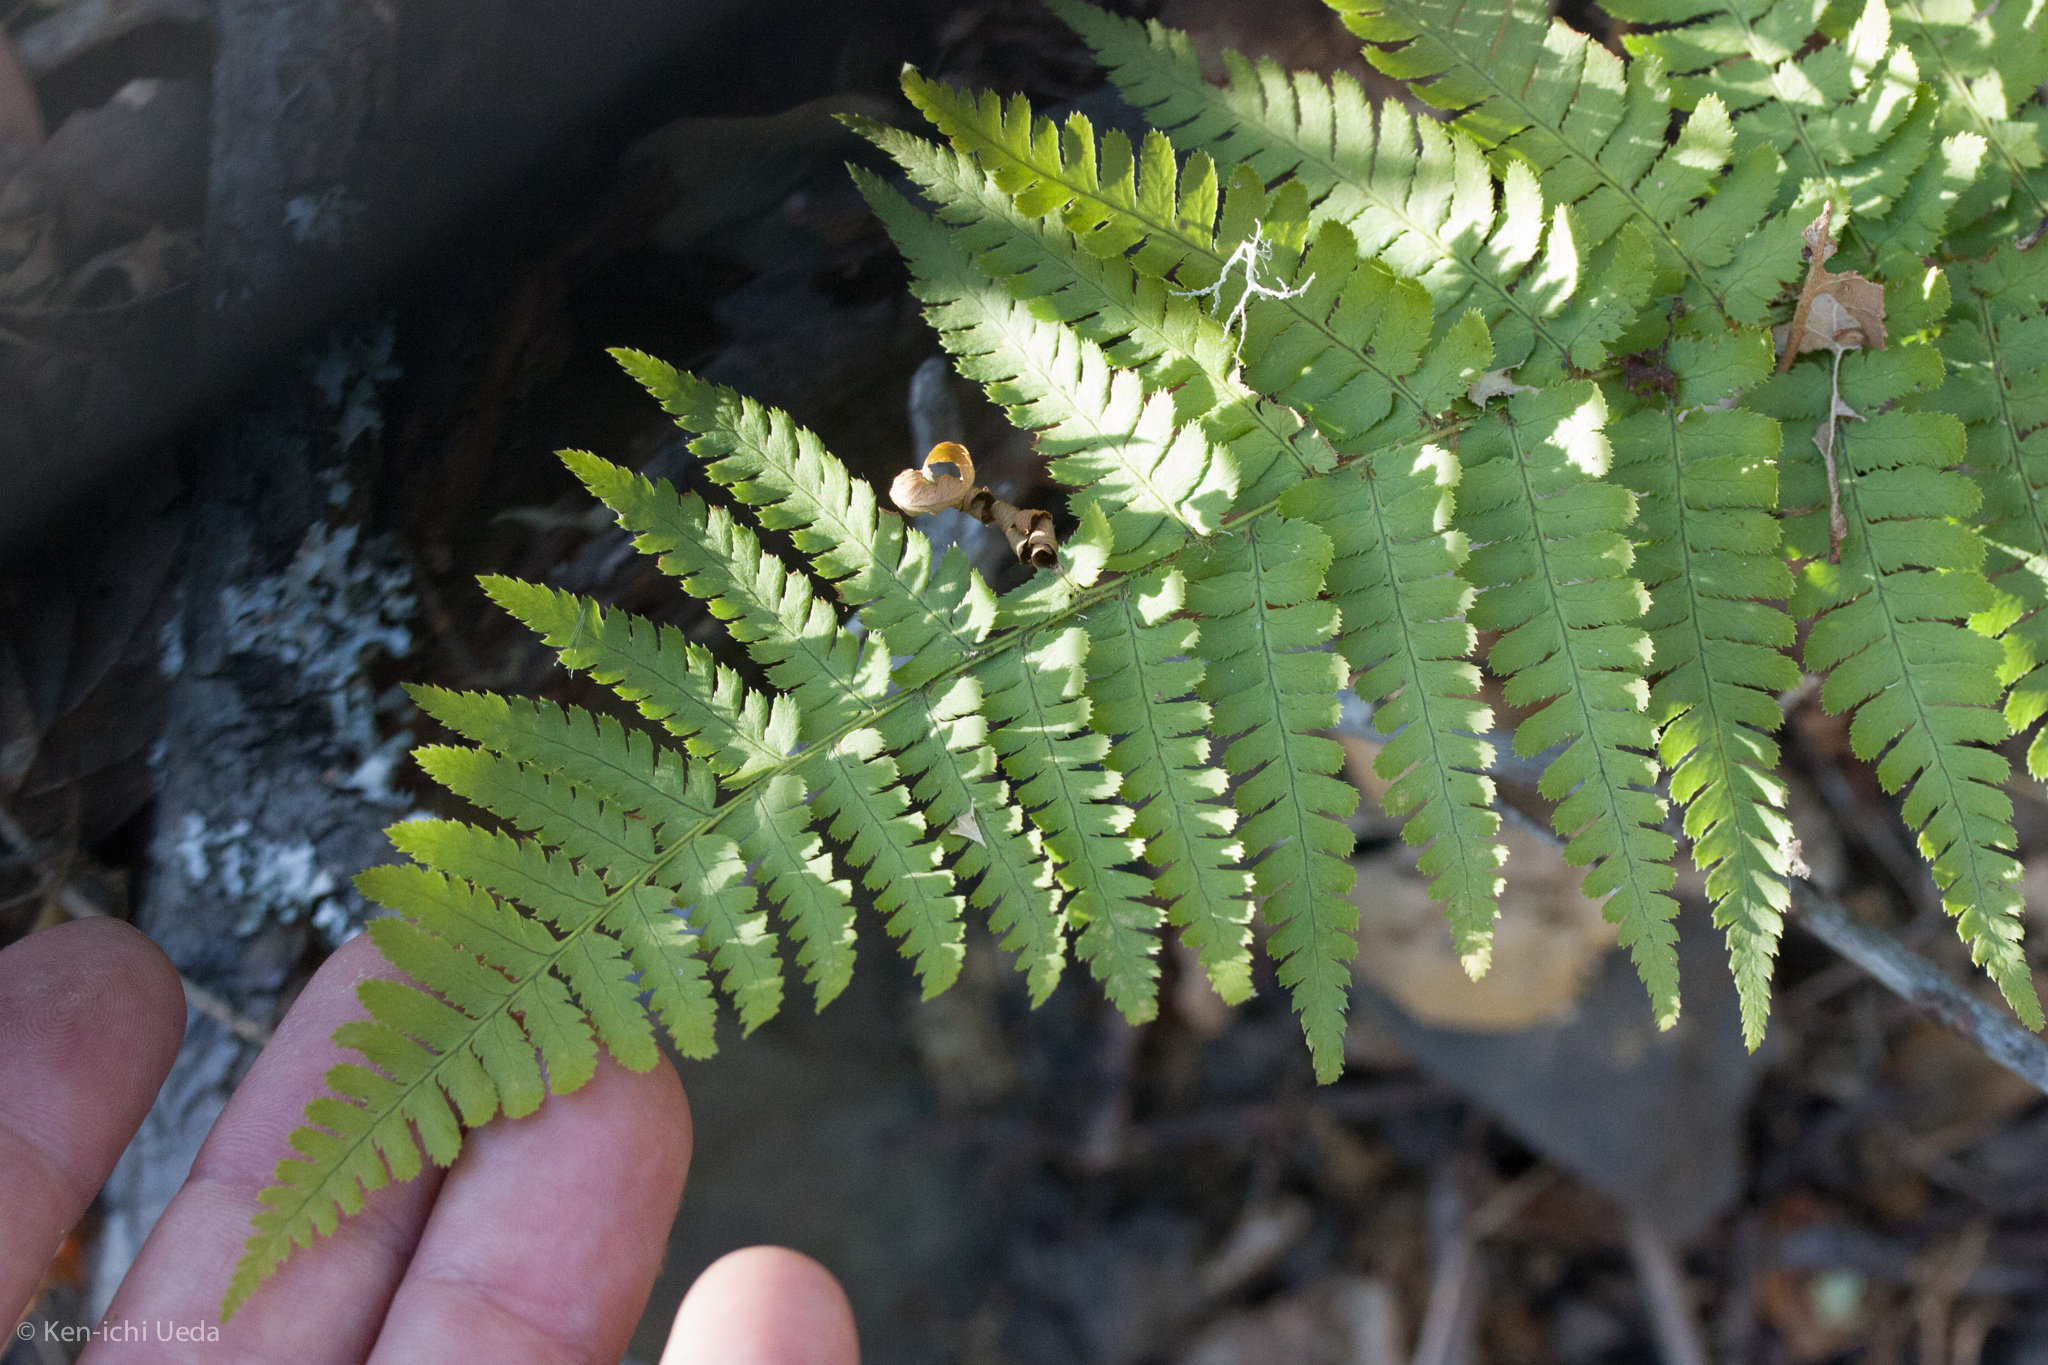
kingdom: Plantae
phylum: Tracheophyta
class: Polypodiopsida
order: Polypodiales
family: Dryopteridaceae
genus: Dryopteris
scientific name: Dryopteris arguta
